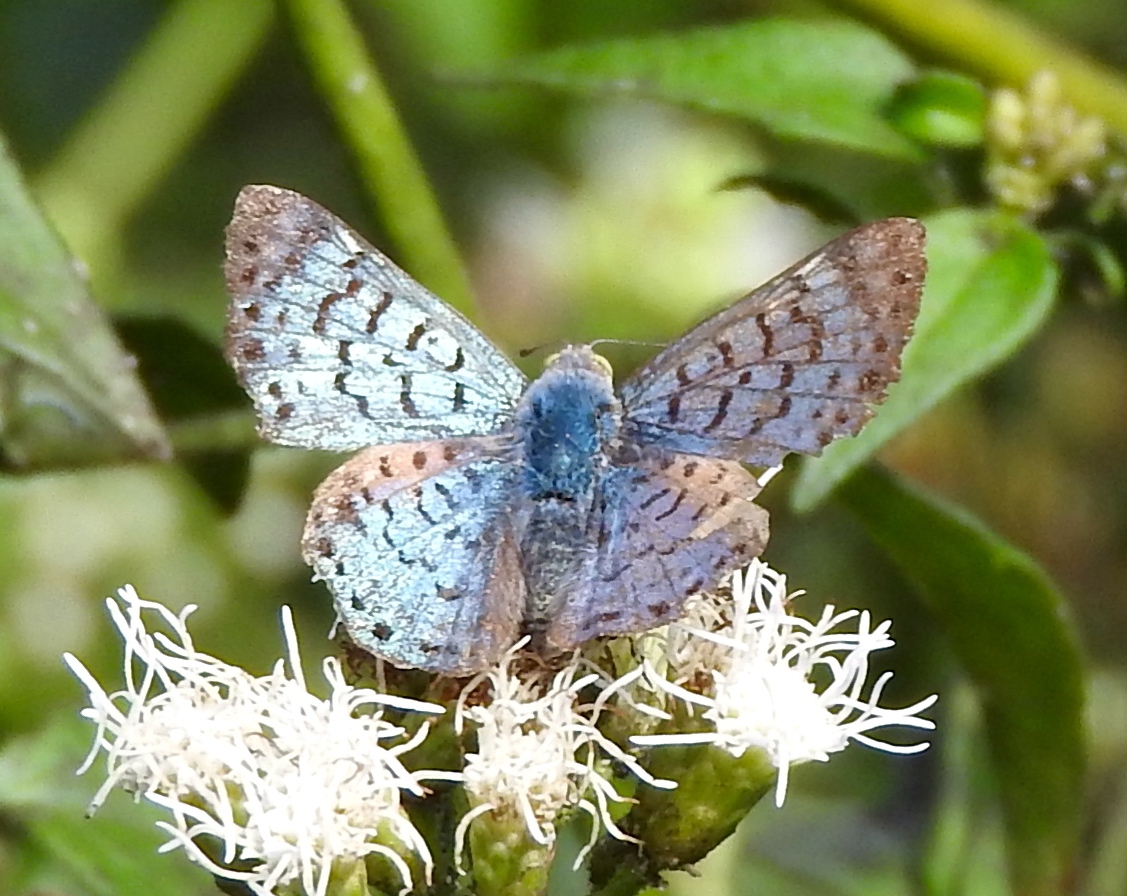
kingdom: Animalia
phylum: Arthropoda
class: Insecta
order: Lepidoptera
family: Riodinidae
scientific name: Riodinidae
